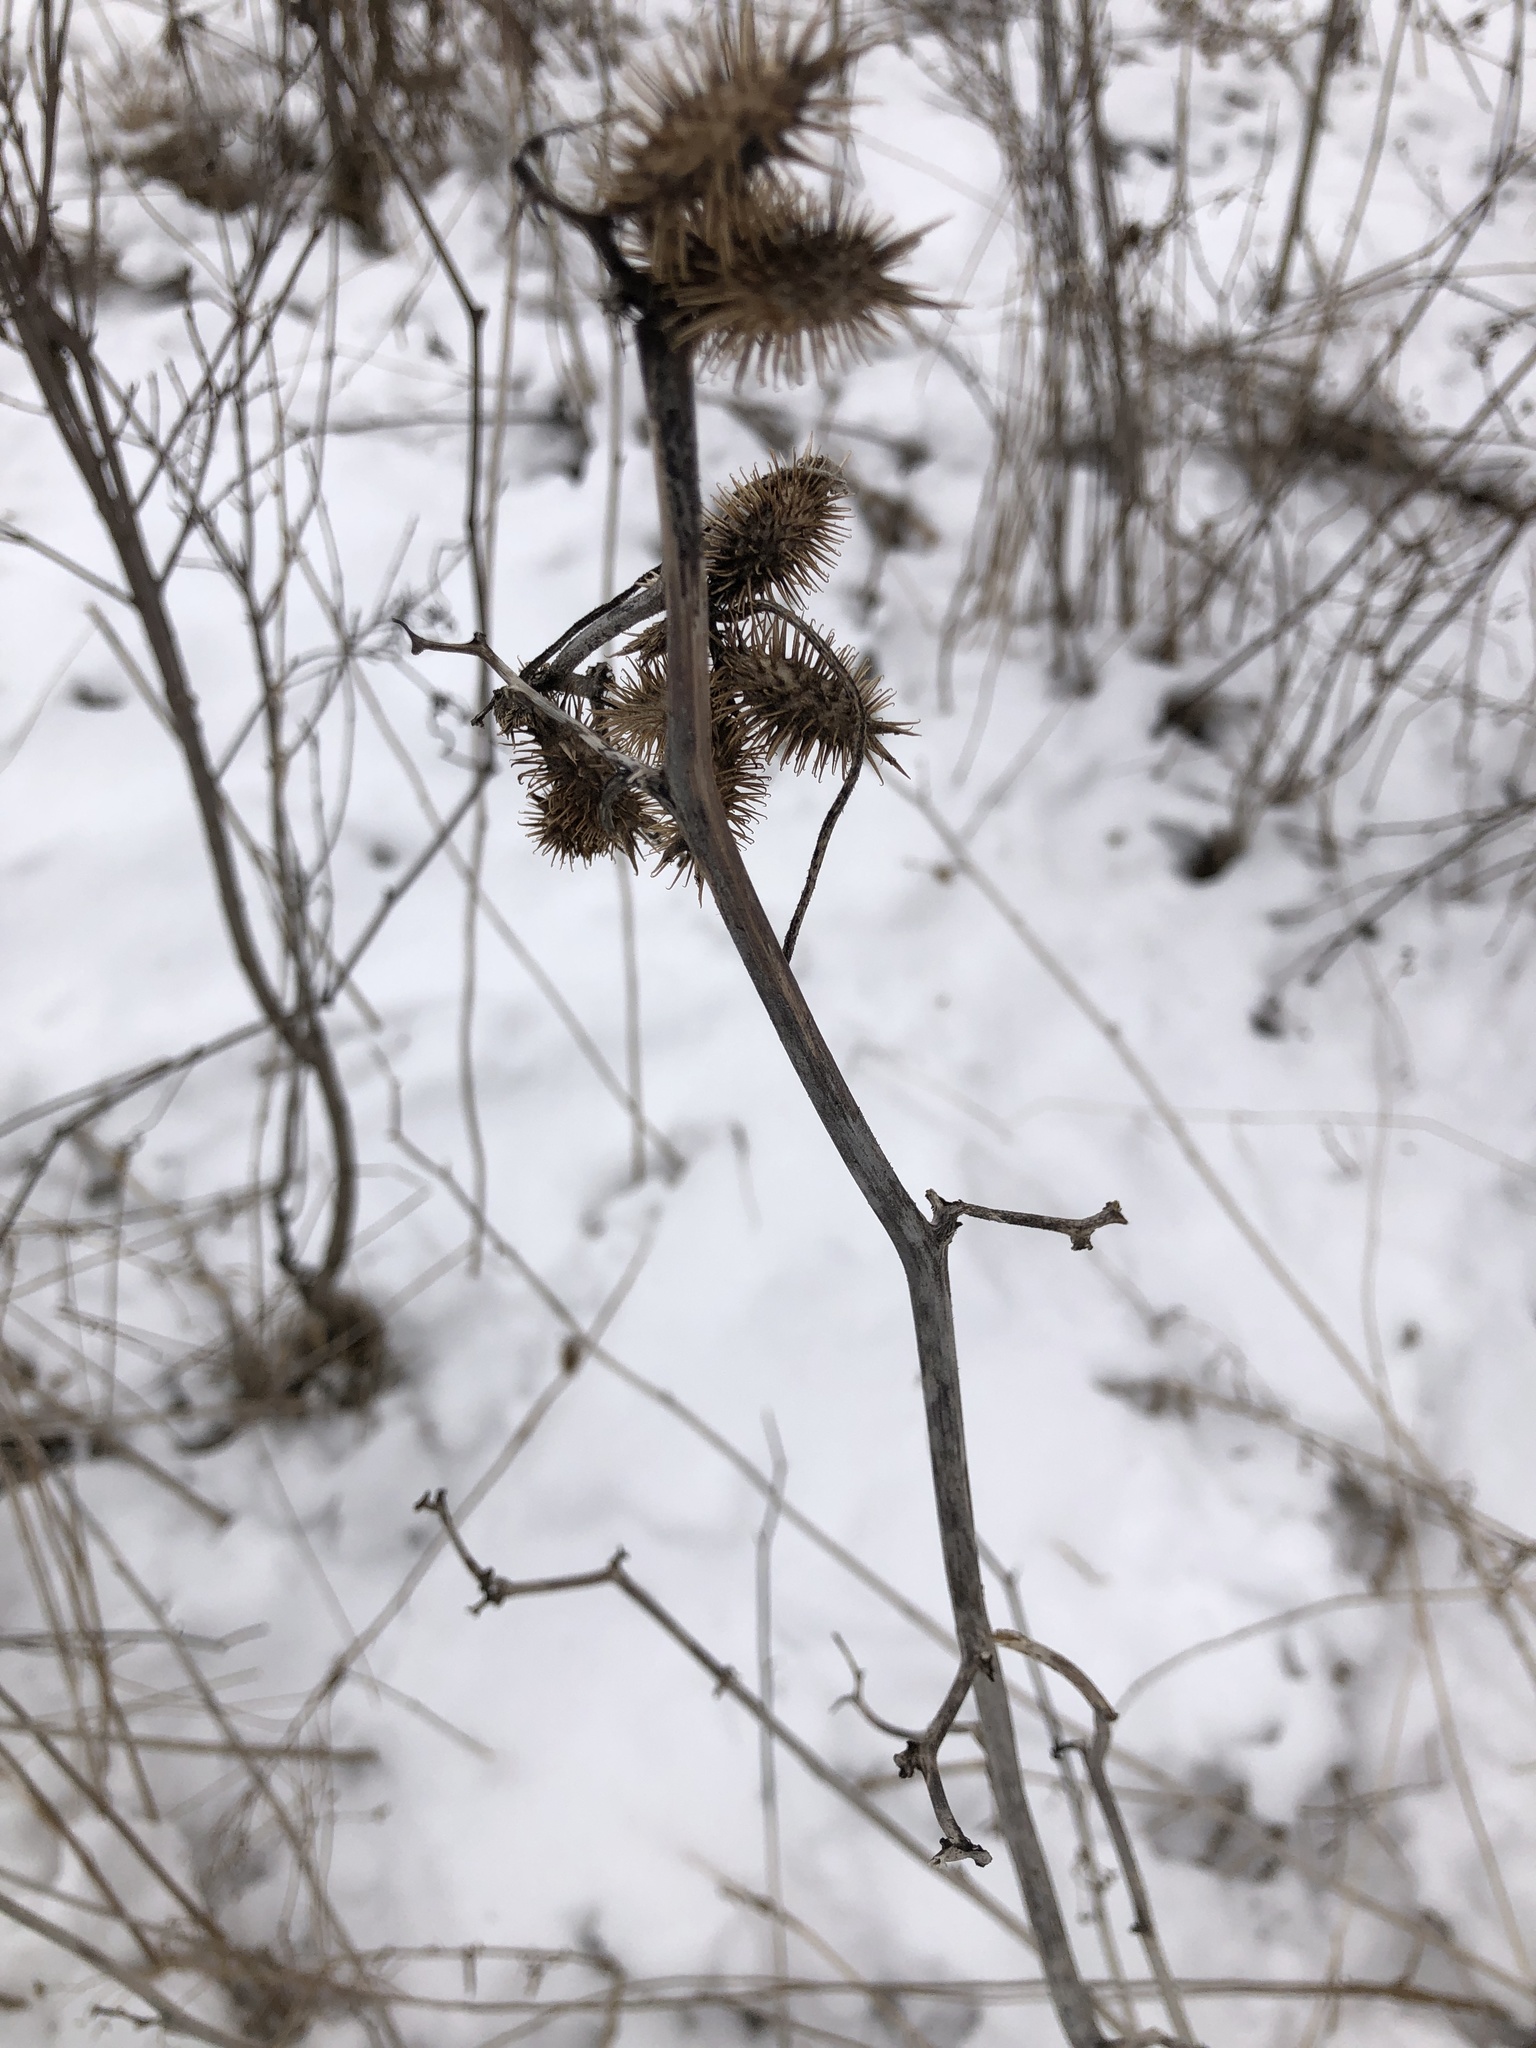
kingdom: Plantae
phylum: Tracheophyta
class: Magnoliopsida
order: Asterales
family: Asteraceae
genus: Xanthium
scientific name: Xanthium strumarium
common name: Rough cocklebur
